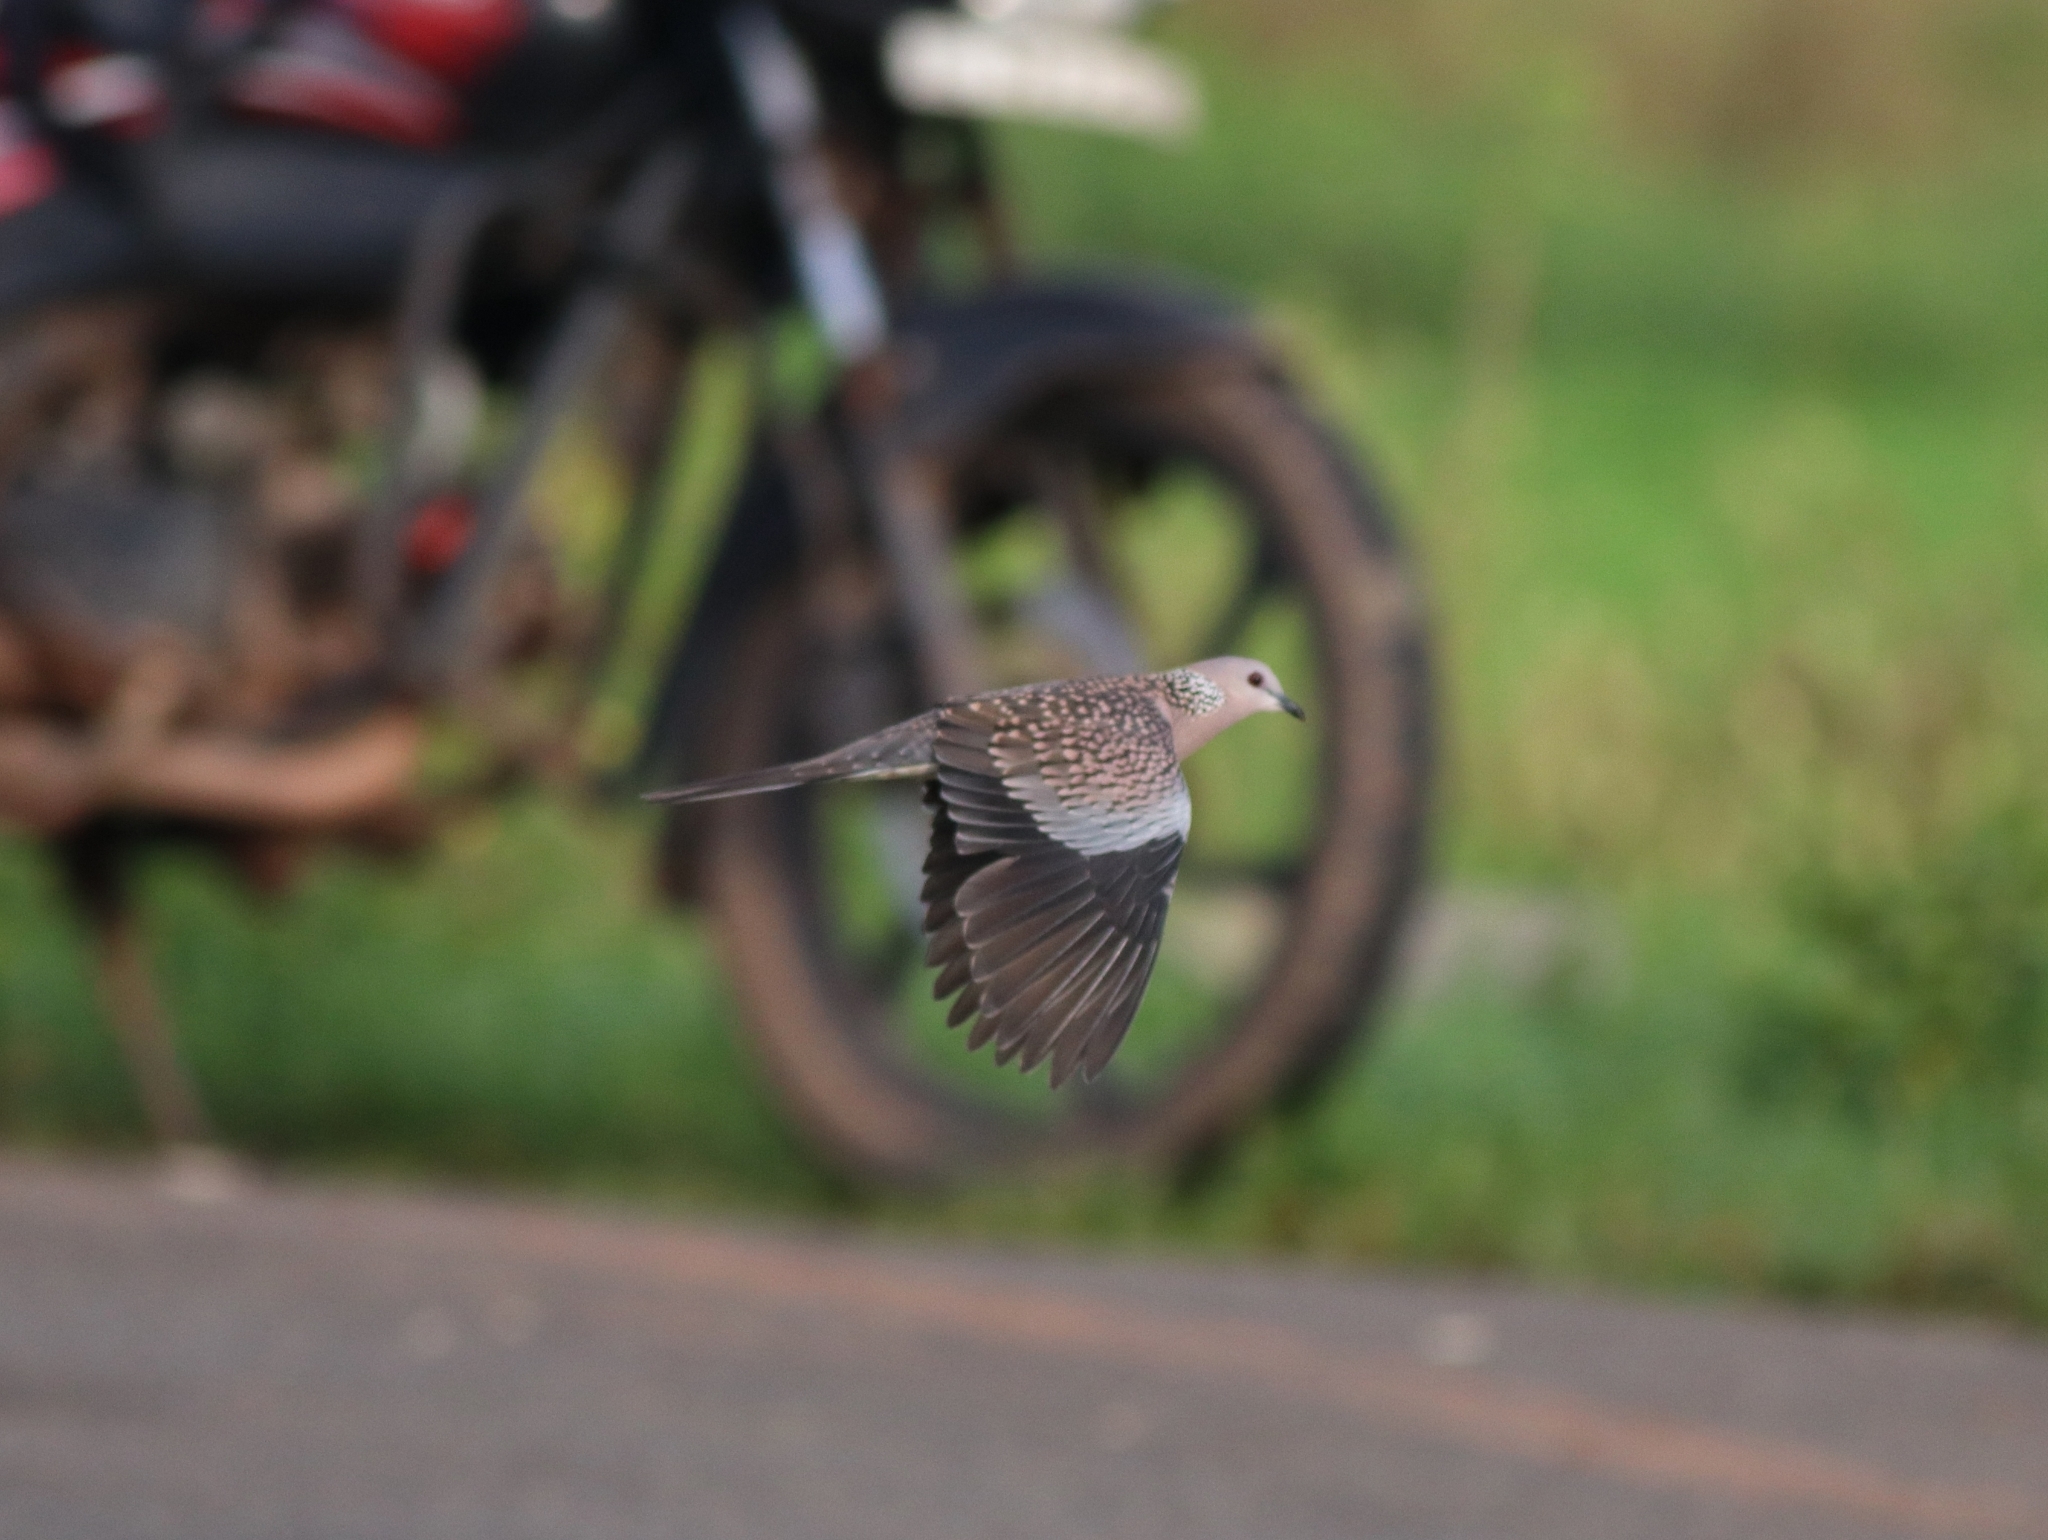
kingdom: Animalia
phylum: Chordata
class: Aves
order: Columbiformes
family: Columbidae
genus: Spilopelia
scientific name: Spilopelia chinensis
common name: Spotted dove
